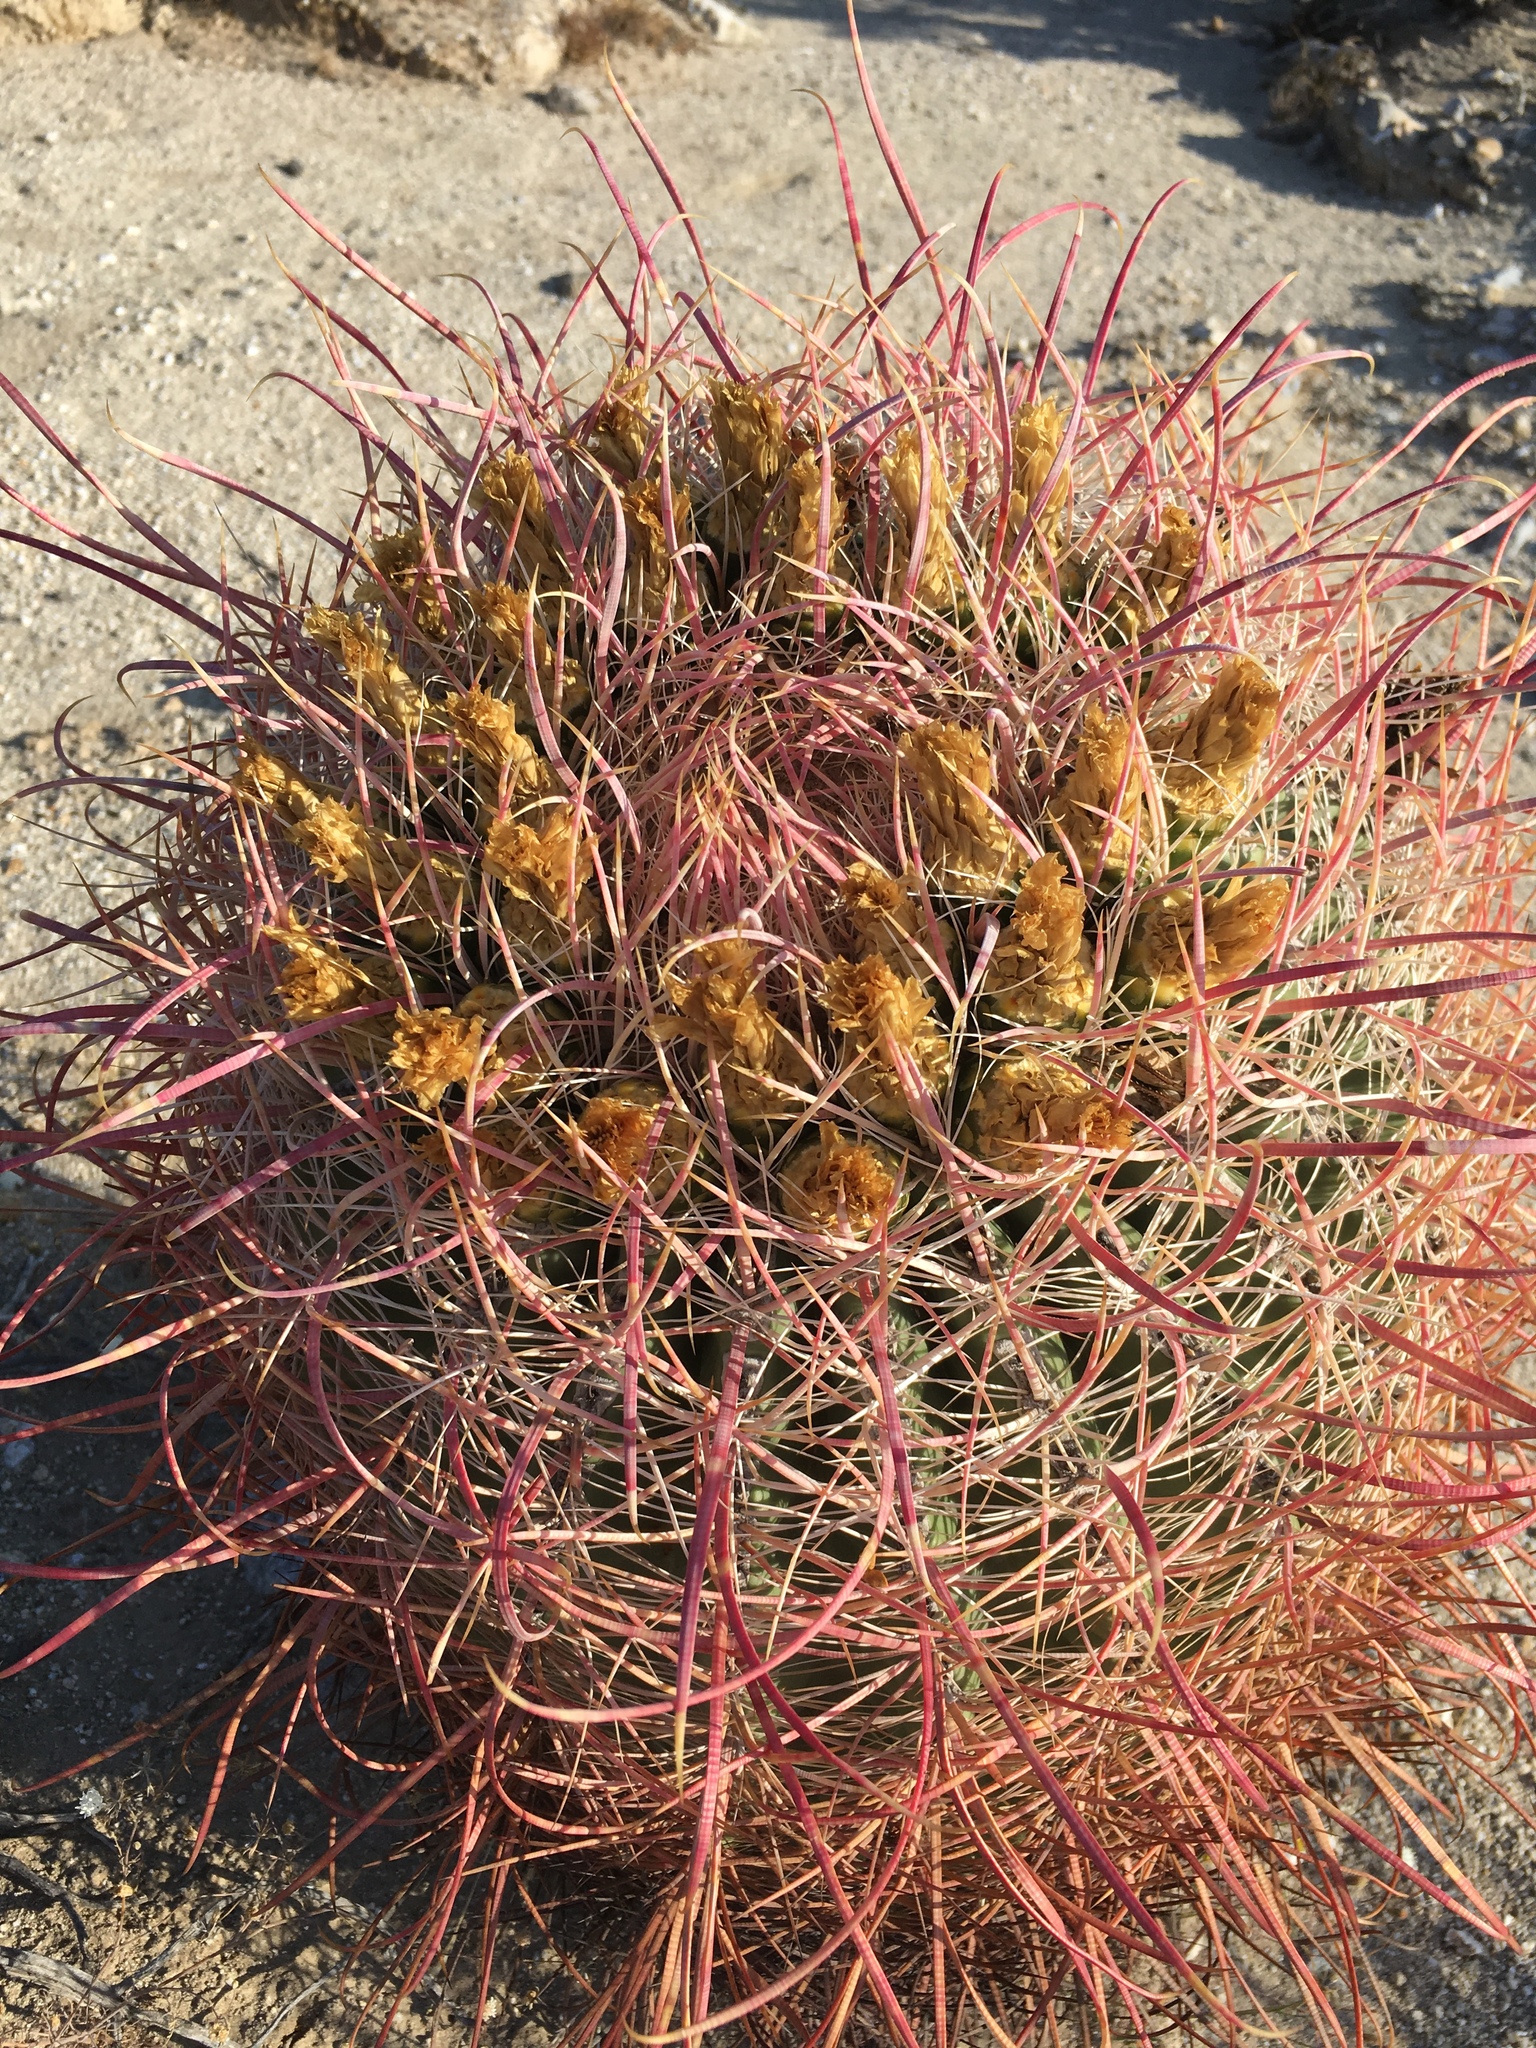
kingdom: Plantae
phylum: Tracheophyta
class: Magnoliopsida
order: Caryophyllales
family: Cactaceae
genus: Ferocactus
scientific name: Ferocactus cylindraceus
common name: California barrel cactus
